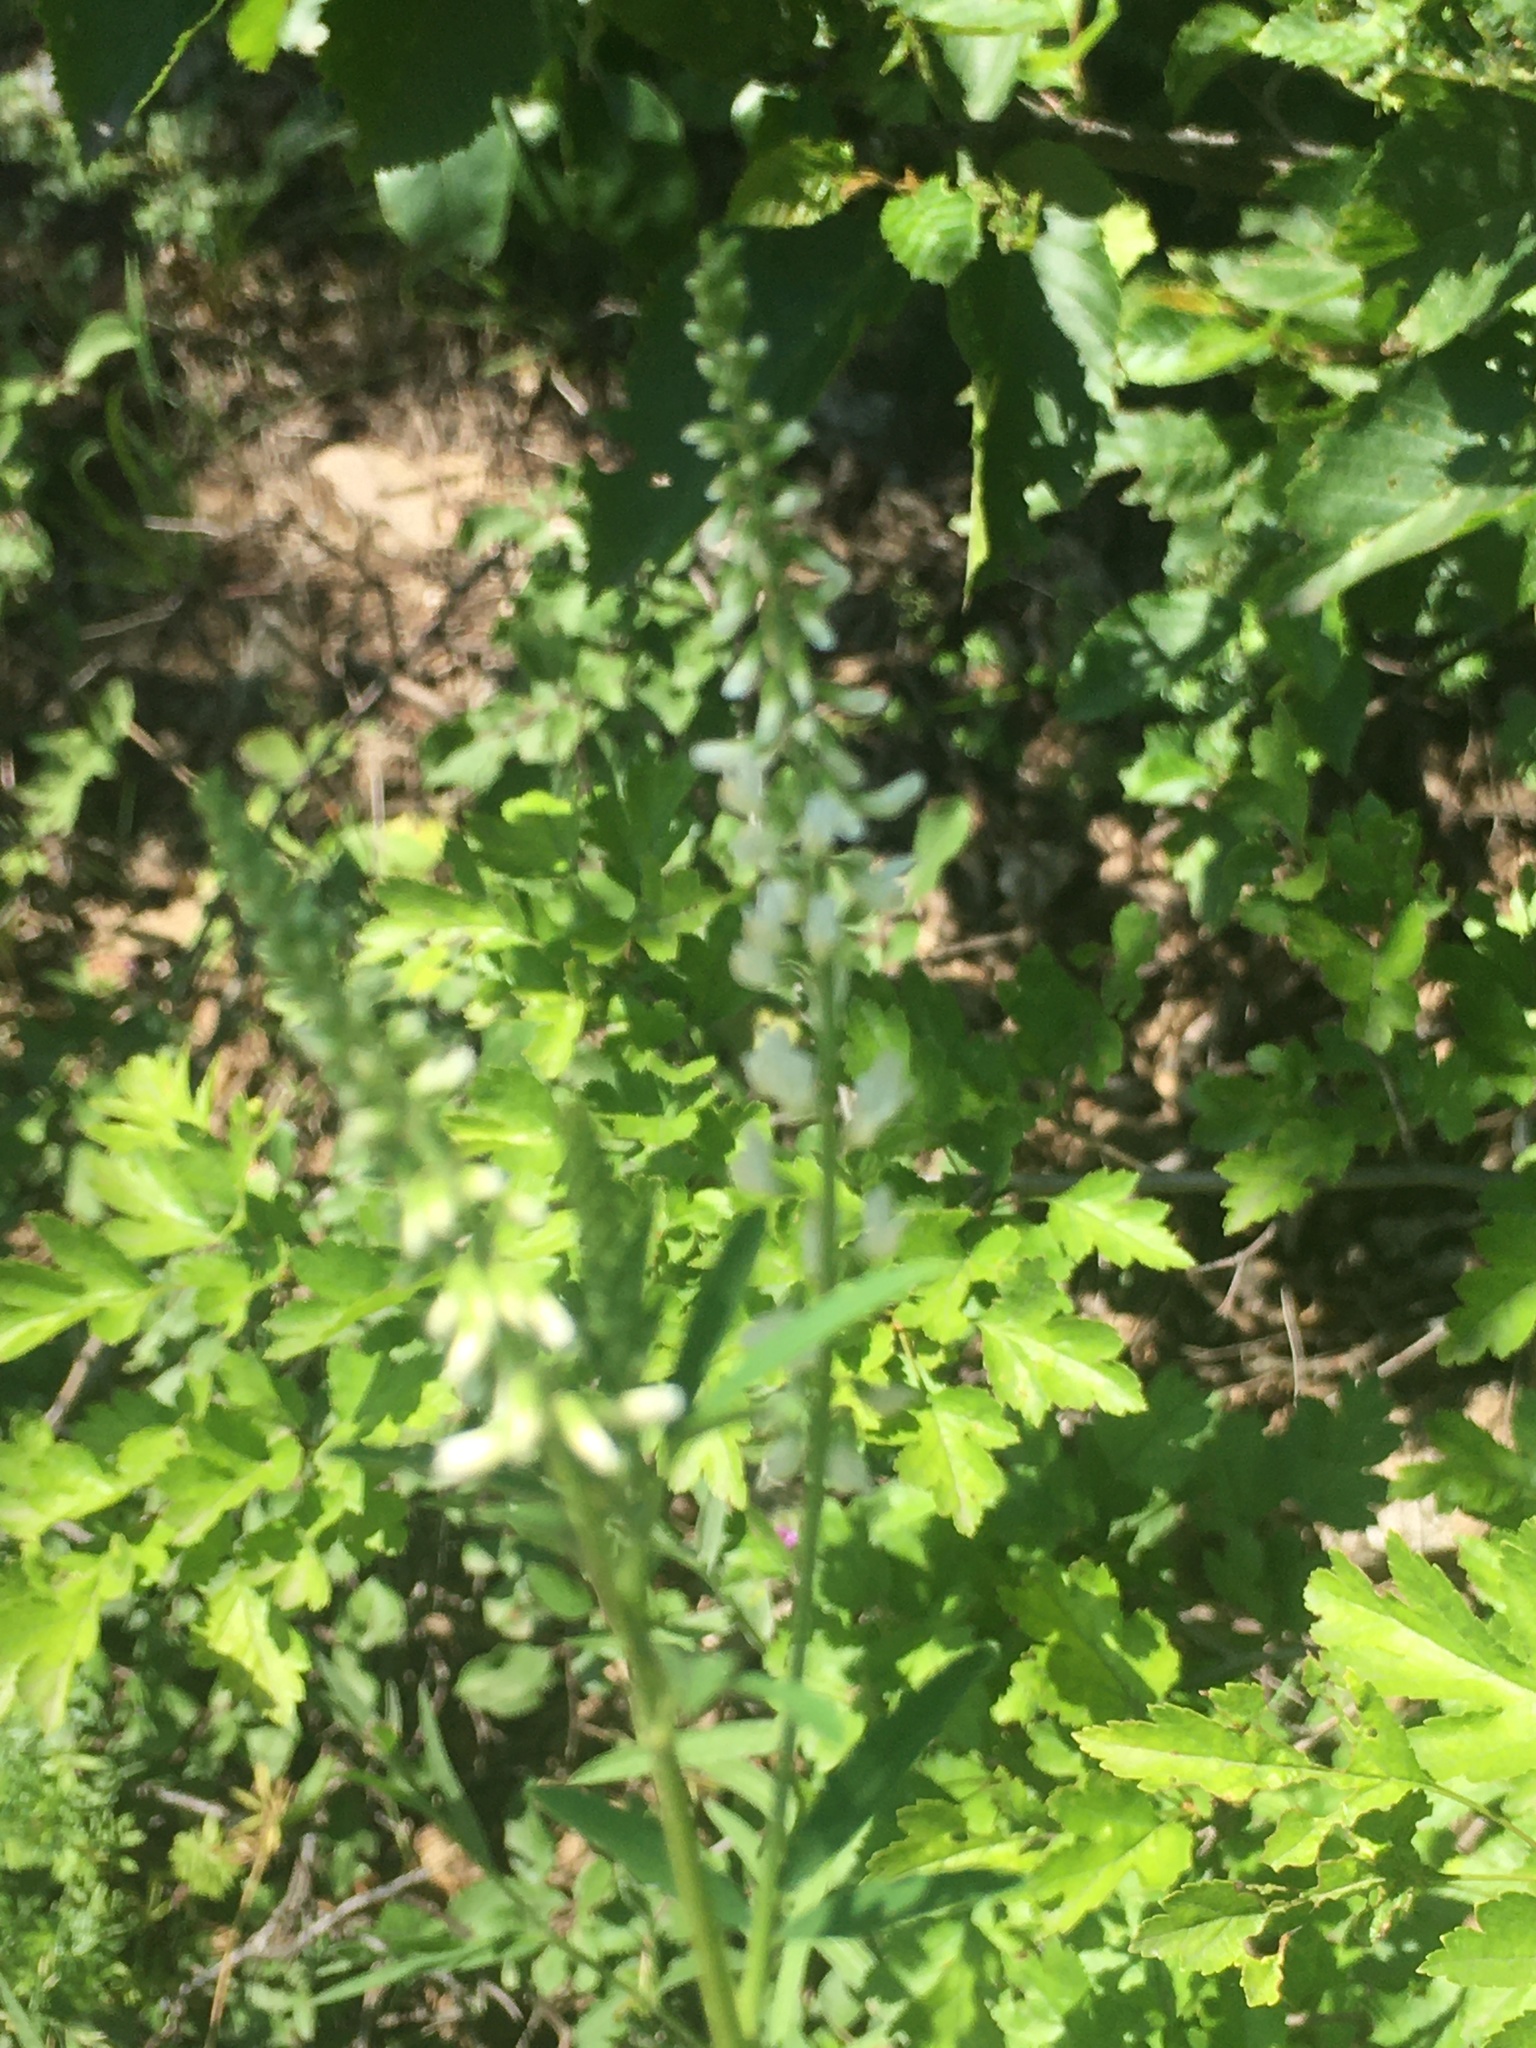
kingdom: Plantae
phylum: Tracheophyta
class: Magnoliopsida
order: Fabales
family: Fabaceae
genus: Melilotus
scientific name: Melilotus albus
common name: White melilot
